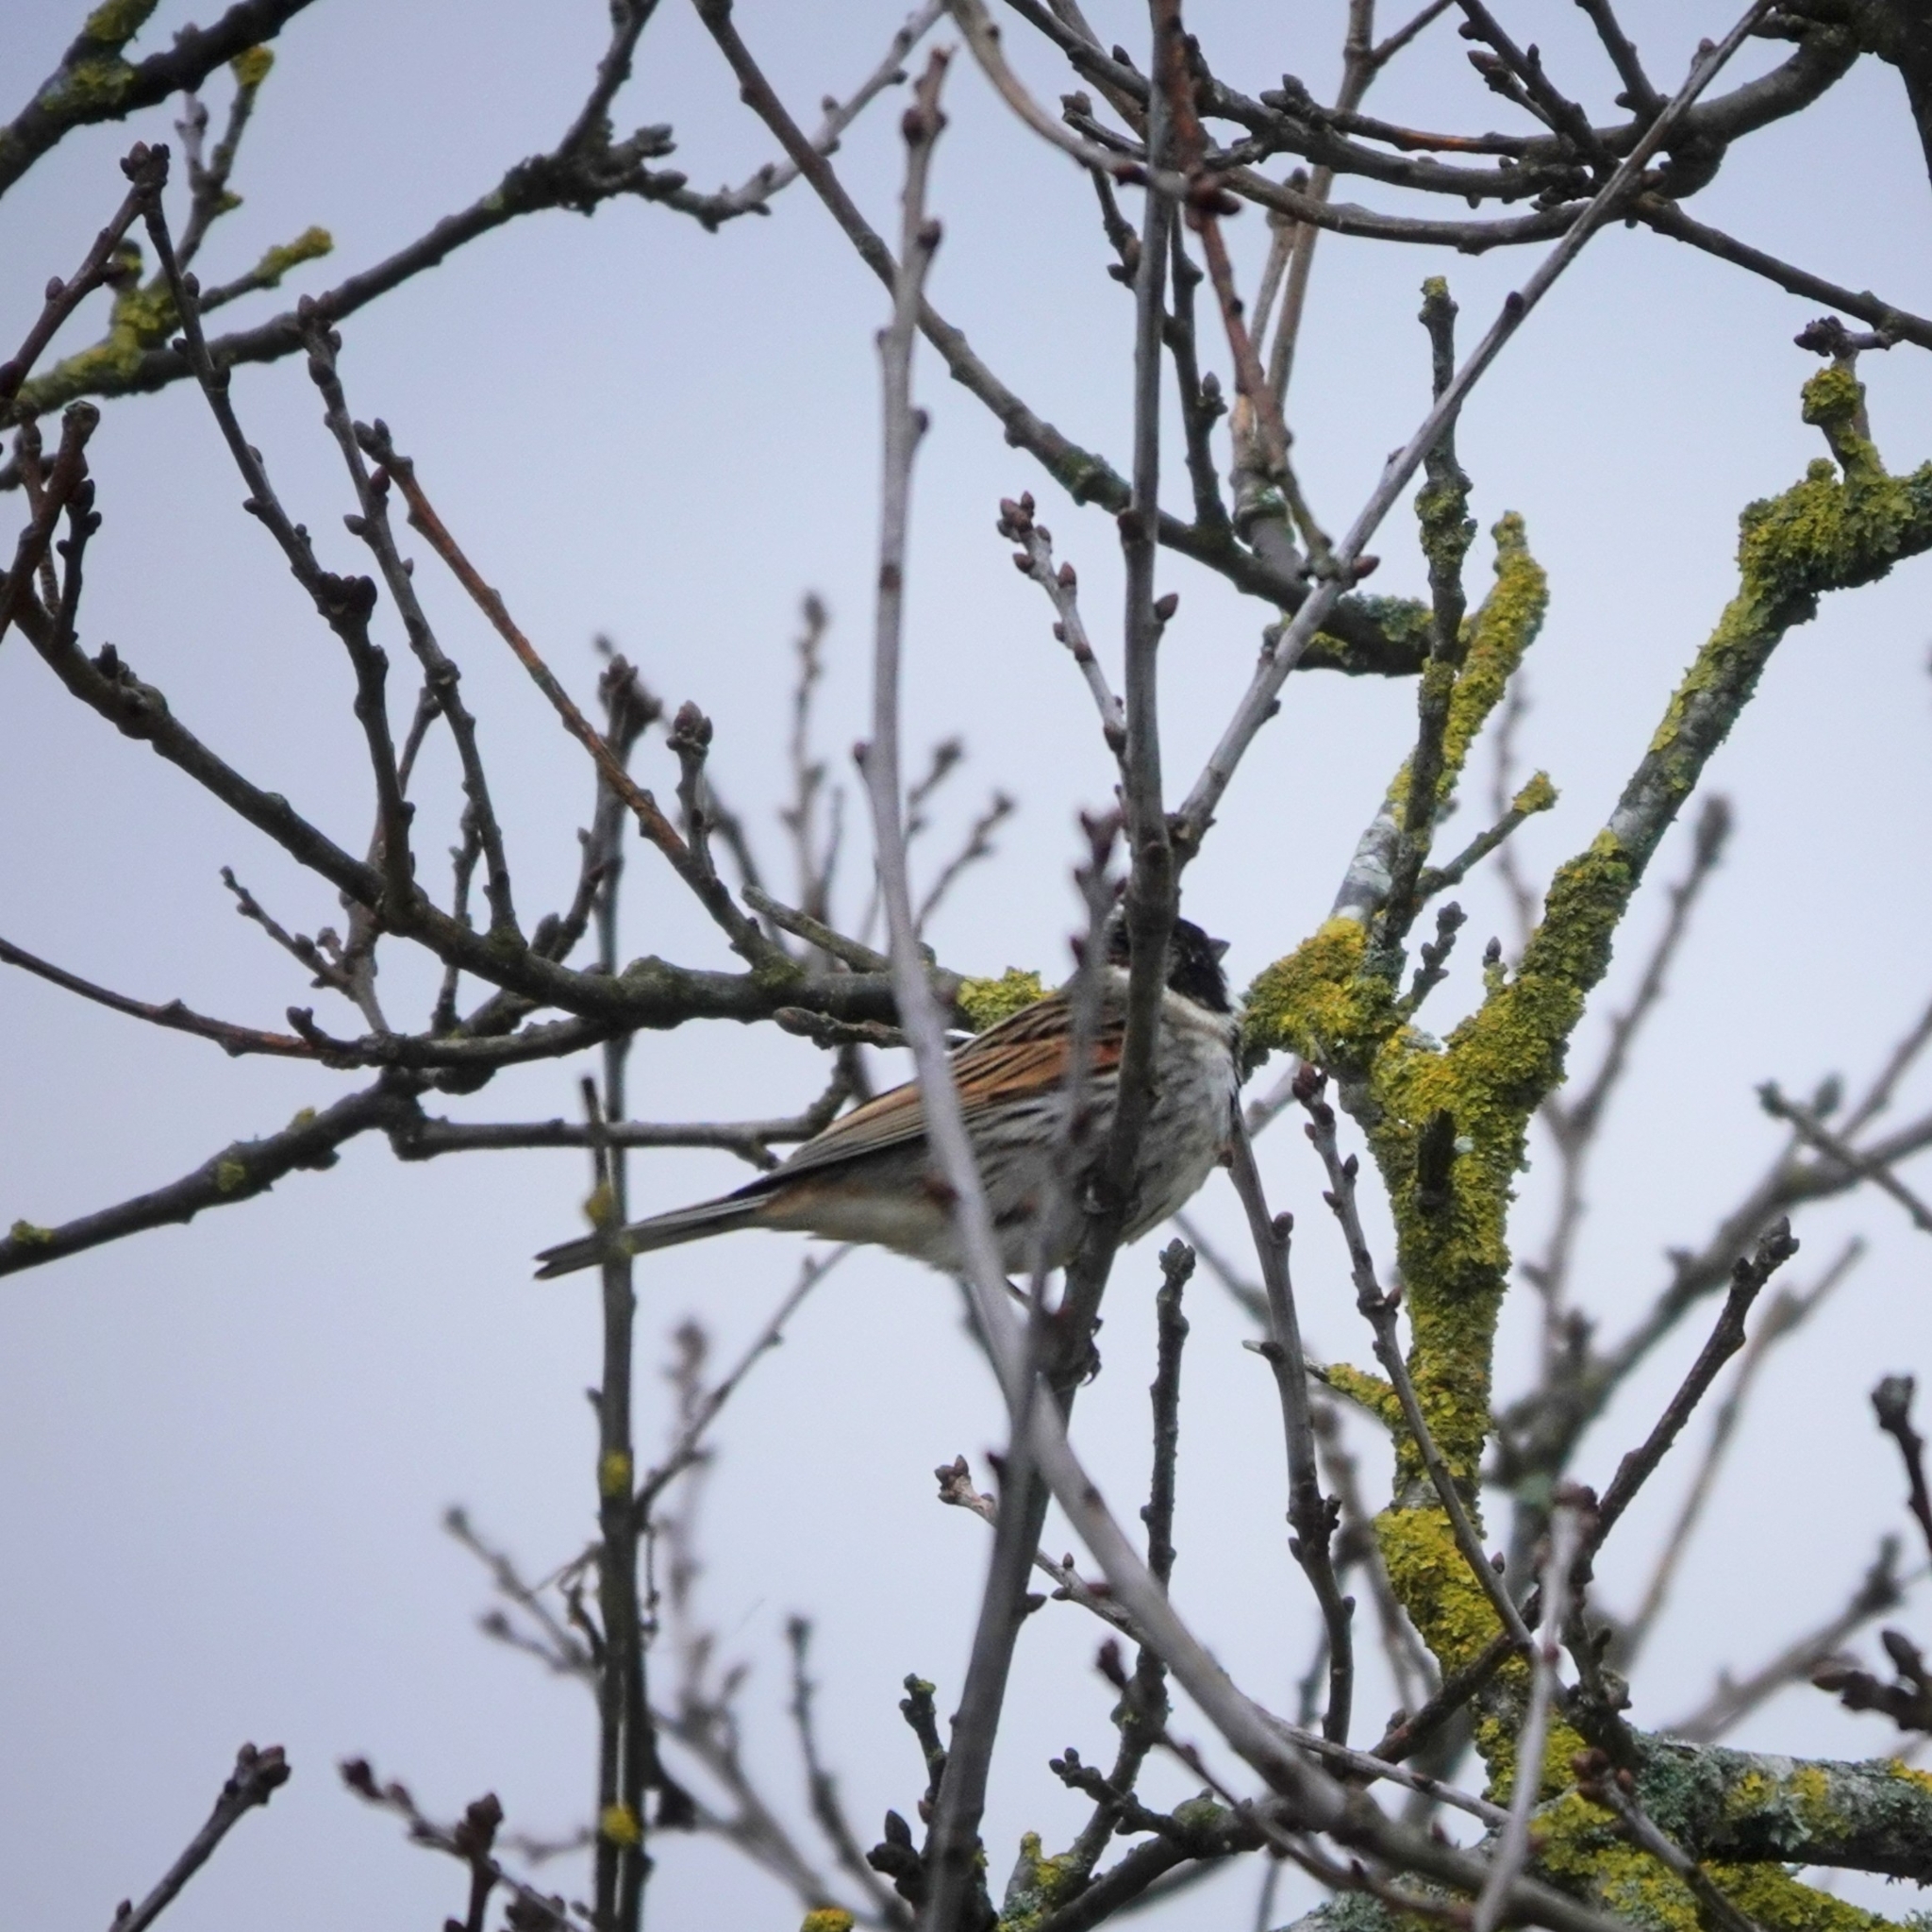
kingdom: Animalia
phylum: Chordata
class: Aves
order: Passeriformes
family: Emberizidae
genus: Emberiza
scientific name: Emberiza schoeniclus
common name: Reed bunting
